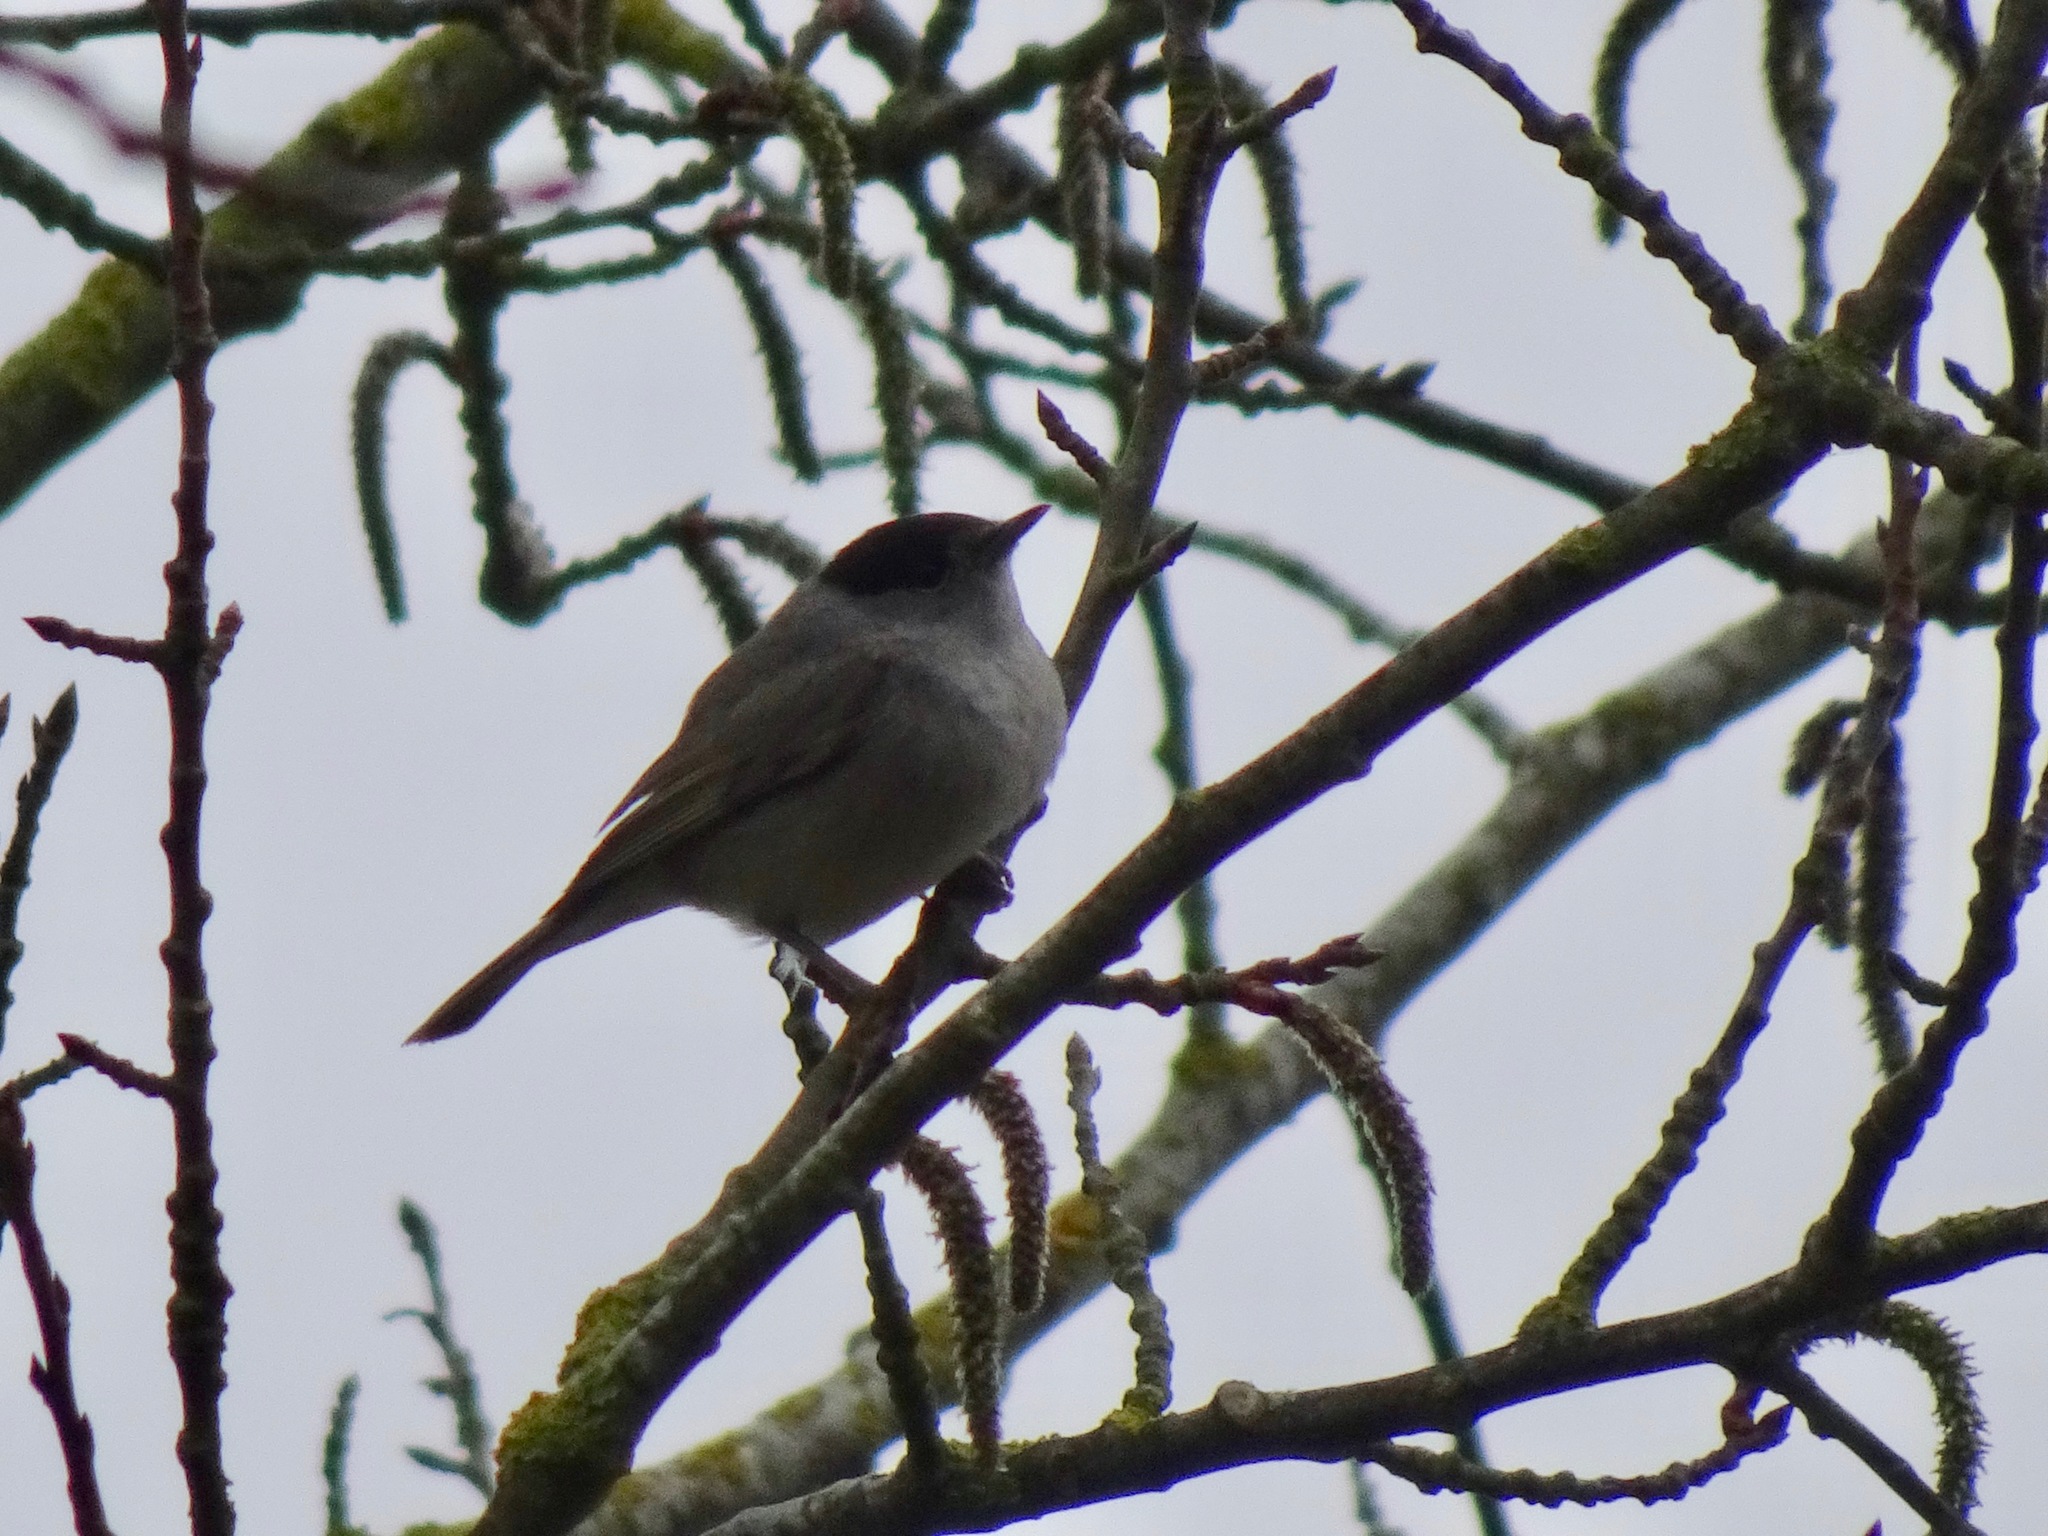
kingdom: Animalia
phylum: Chordata
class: Aves
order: Passeriformes
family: Sylviidae
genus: Sylvia
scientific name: Sylvia atricapilla
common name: Eurasian blackcap
